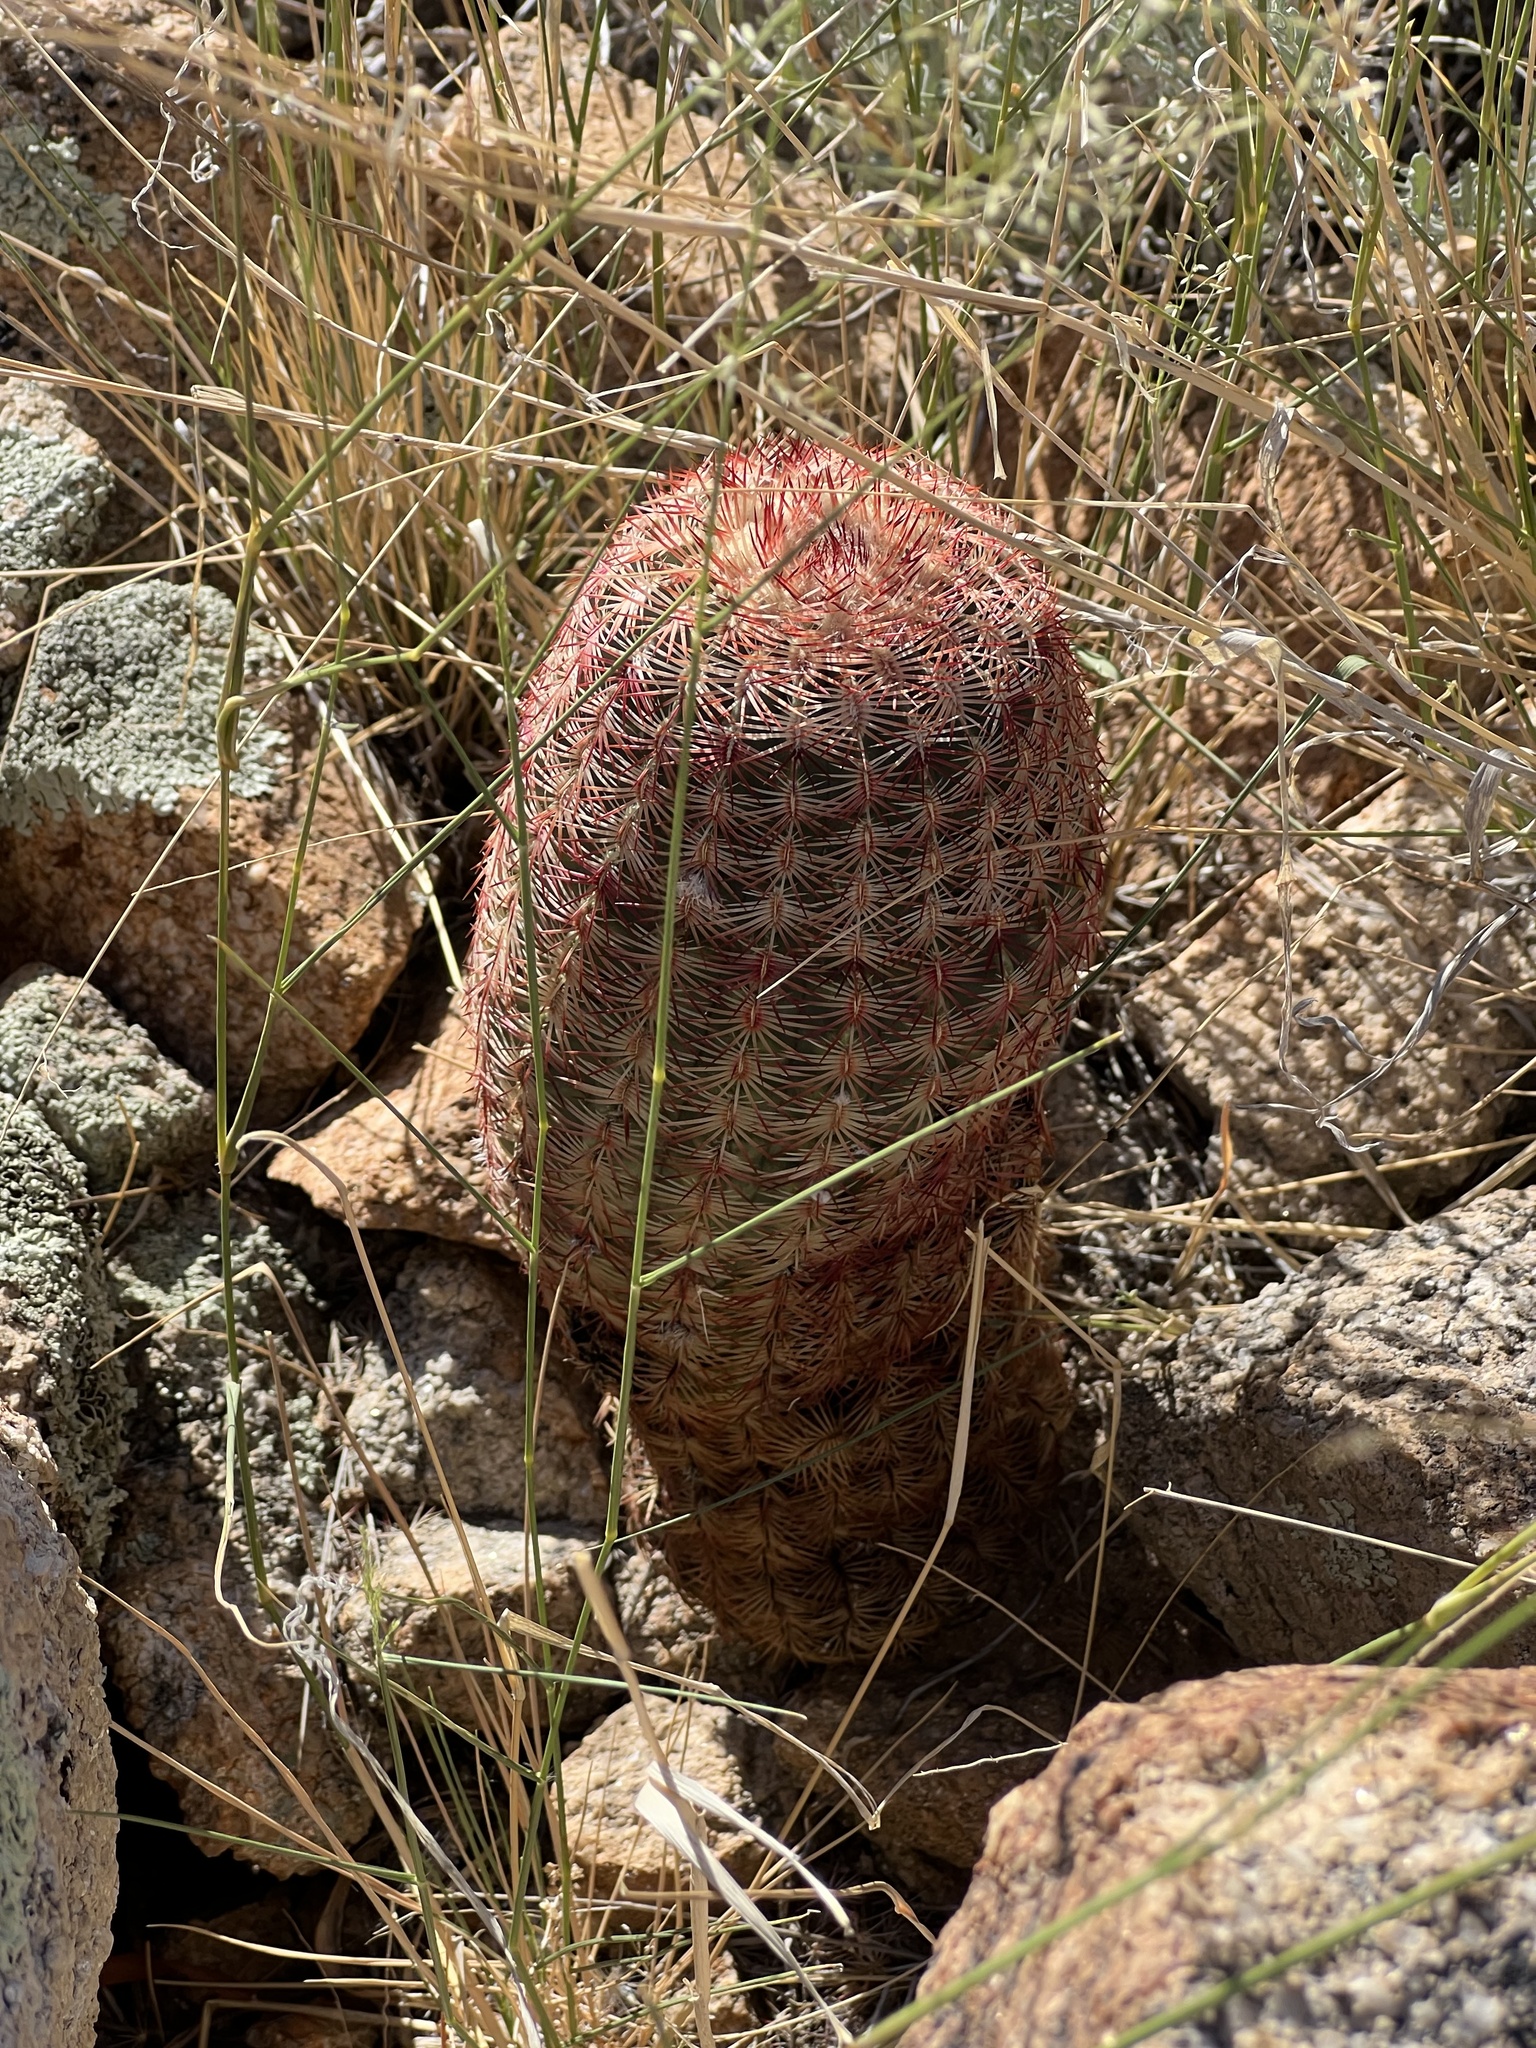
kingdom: Plantae
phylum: Tracheophyta
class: Magnoliopsida
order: Caryophyllales
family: Cactaceae
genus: Echinocereus
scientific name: Echinocereus rigidissimus
